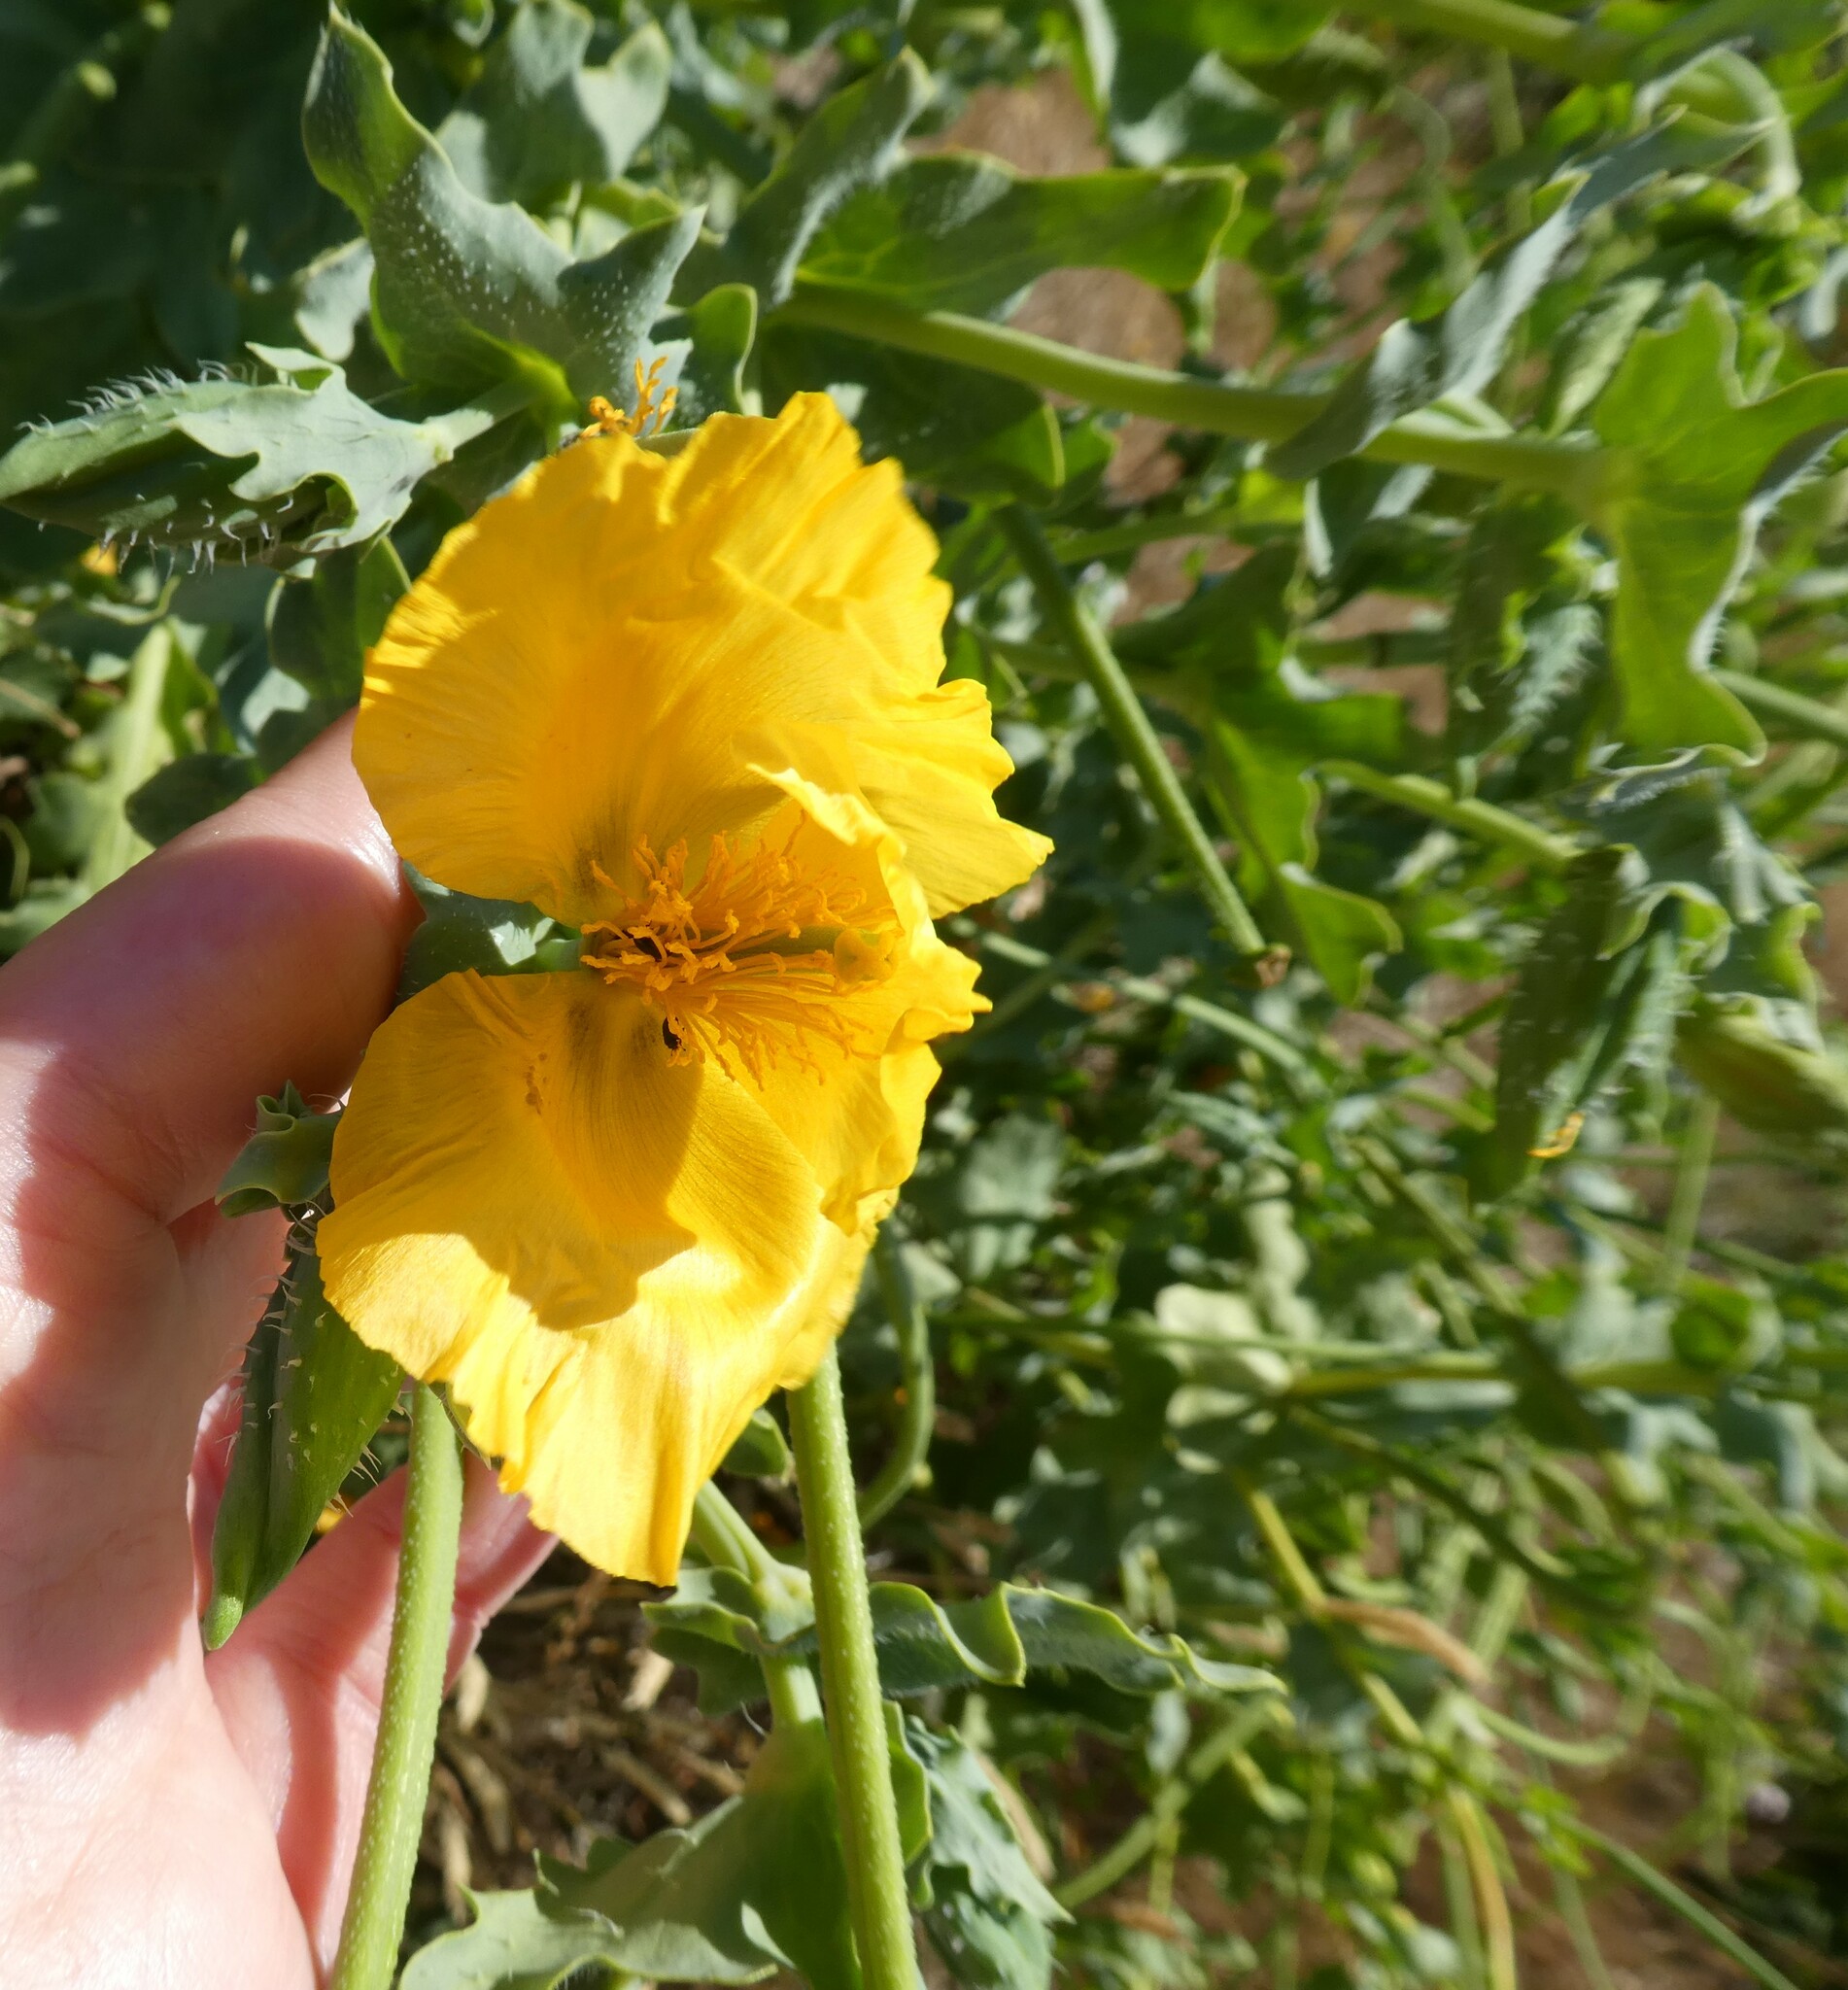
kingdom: Plantae
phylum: Tracheophyta
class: Magnoliopsida
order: Ranunculales
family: Papaveraceae
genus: Glaucium
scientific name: Glaucium flavum
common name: Yellow horned-poppy
